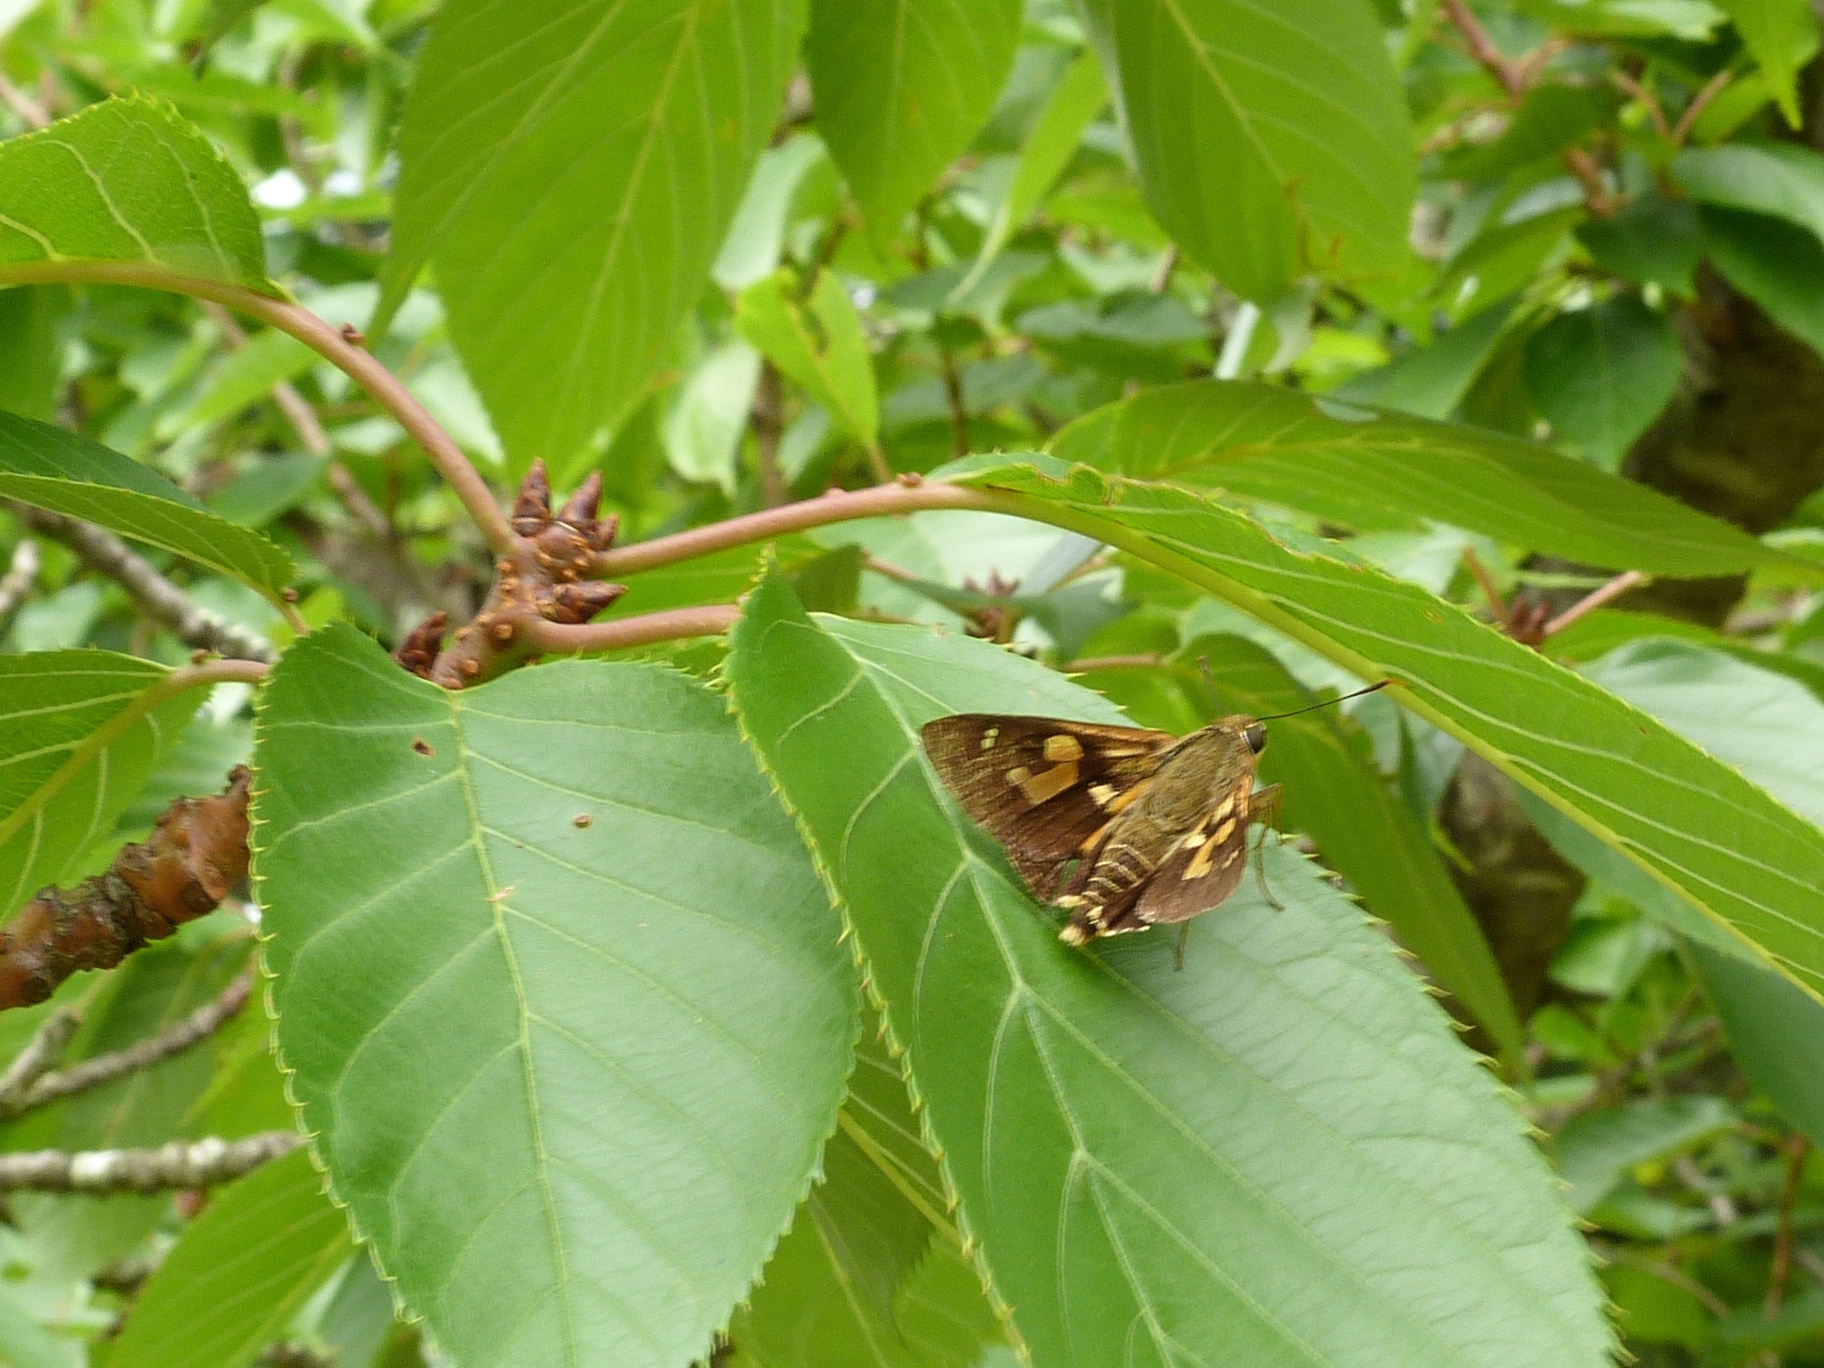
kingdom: Animalia
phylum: Arthropoda
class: Insecta
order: Lepidoptera
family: Hesperiidae
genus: Trapezites
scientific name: Trapezites symmomus
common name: Splendid ochre
